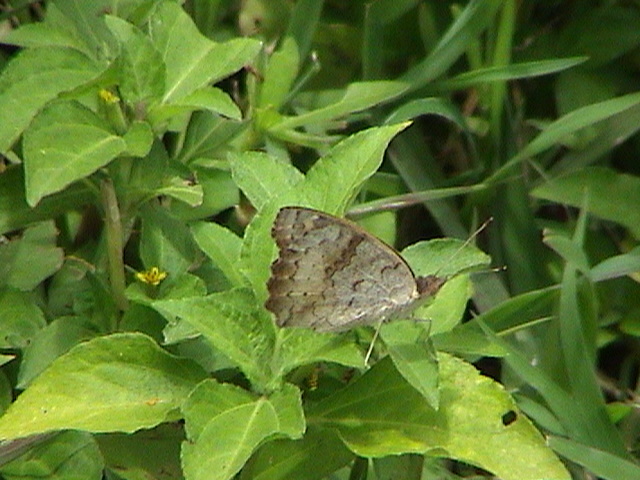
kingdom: Animalia
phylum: Arthropoda
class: Insecta
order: Lepidoptera
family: Nymphalidae
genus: Junonia
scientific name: Junonia hierta
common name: Yellow pansy
